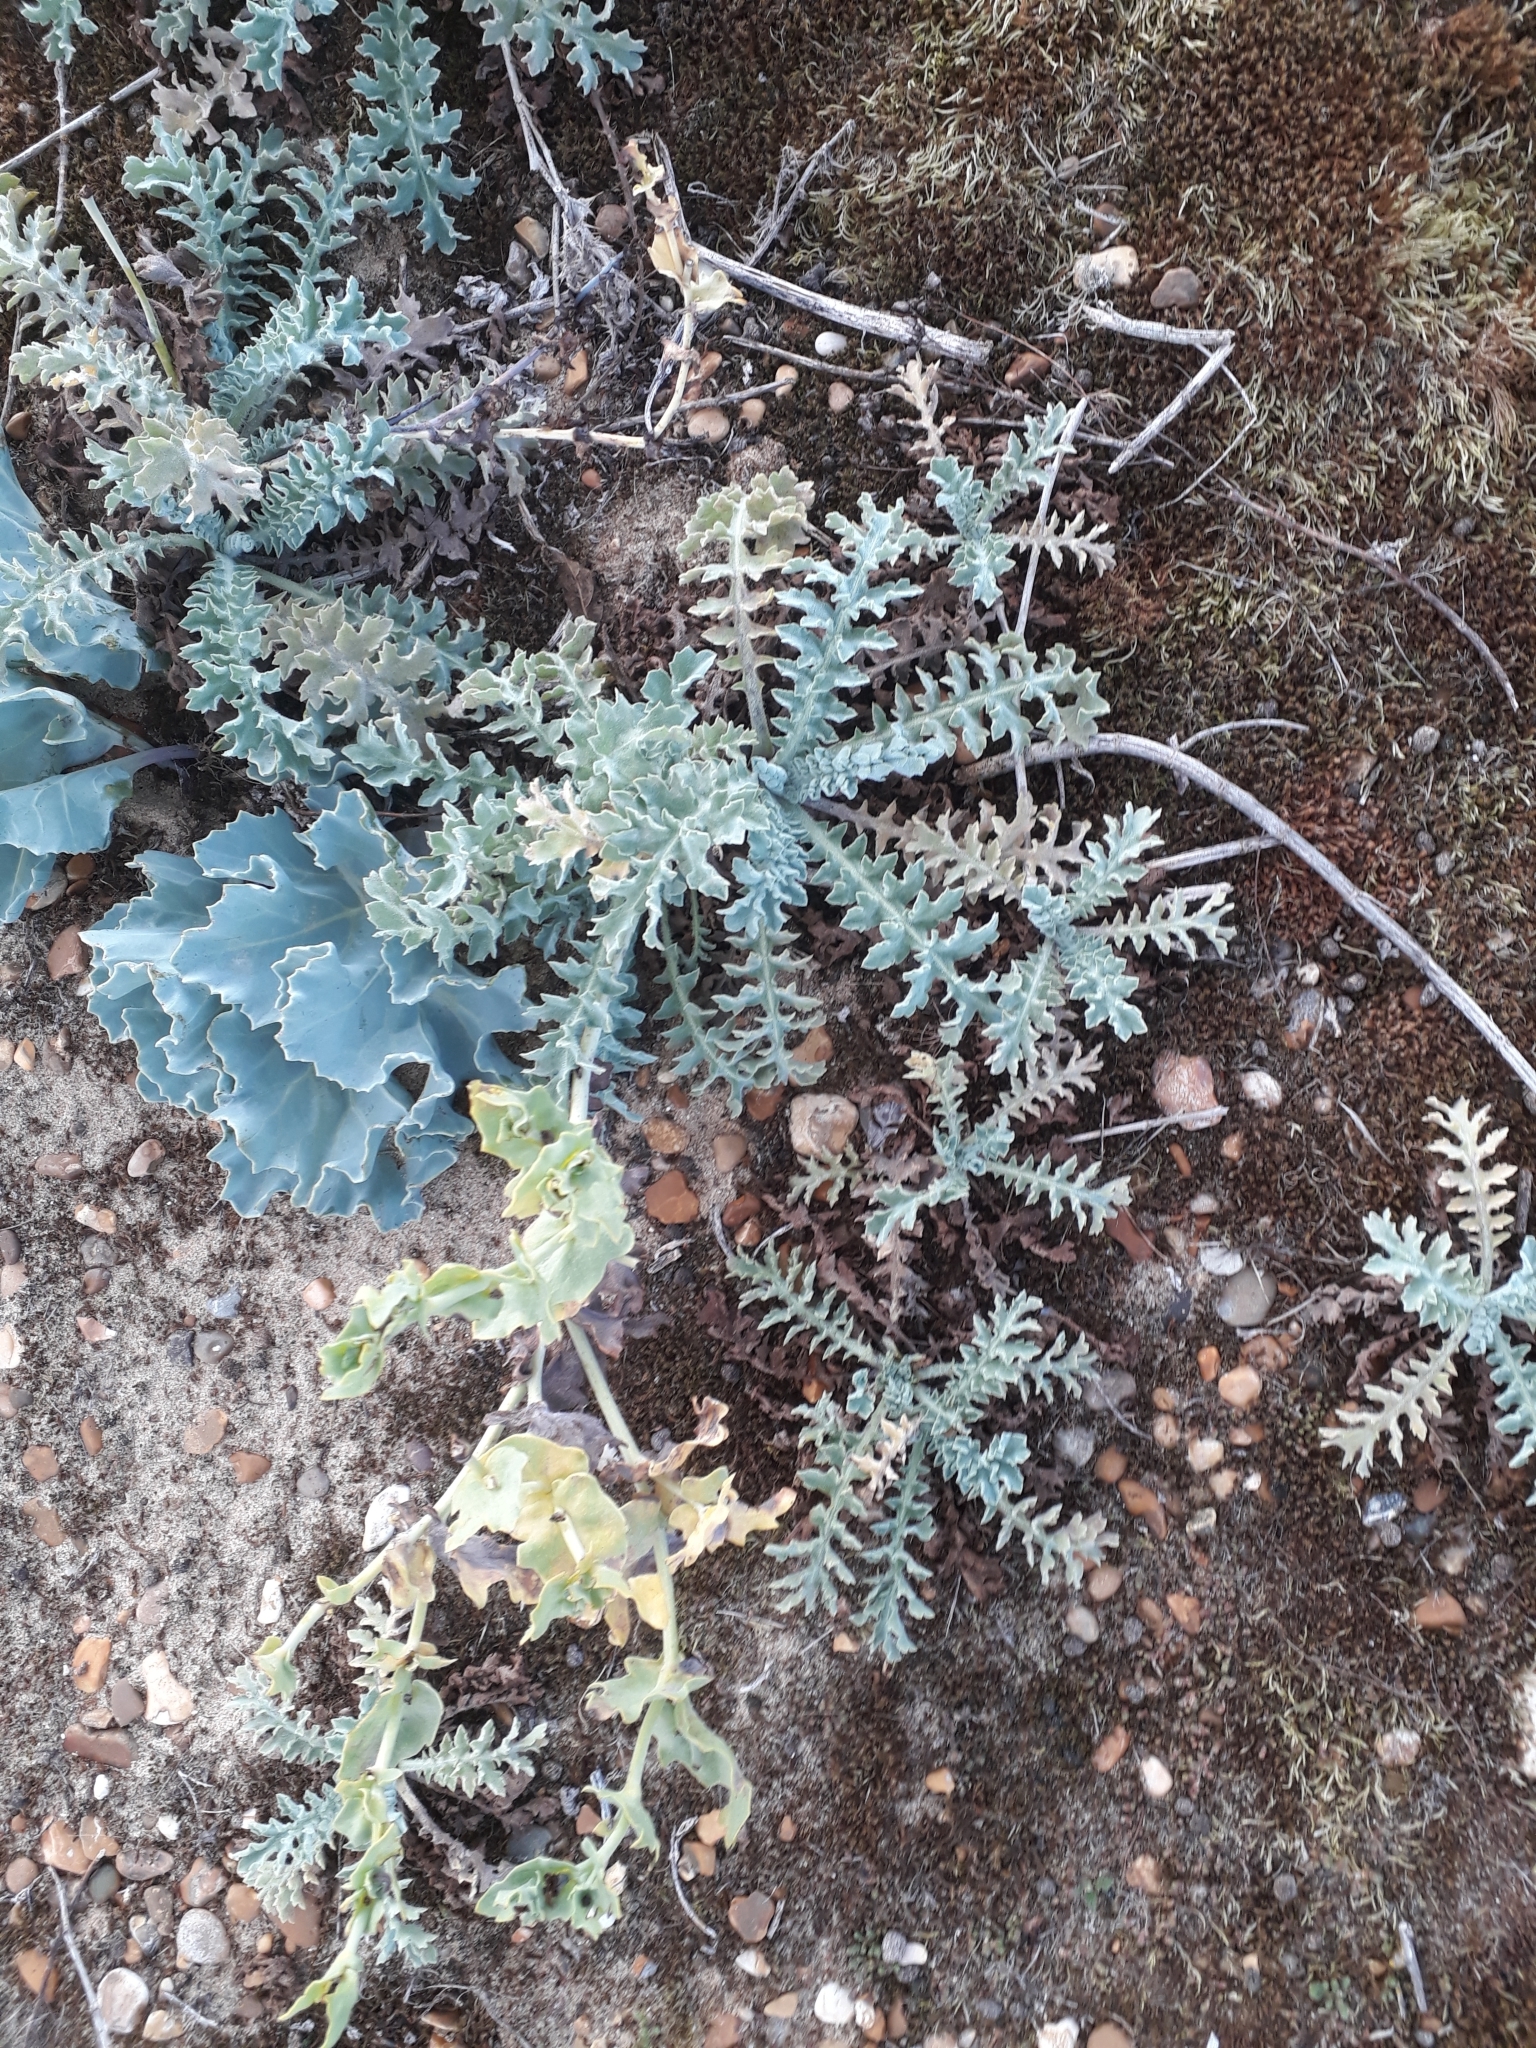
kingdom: Plantae
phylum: Tracheophyta
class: Magnoliopsida
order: Ranunculales
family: Papaveraceae
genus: Glaucium
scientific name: Glaucium flavum
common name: Yellow horned-poppy
